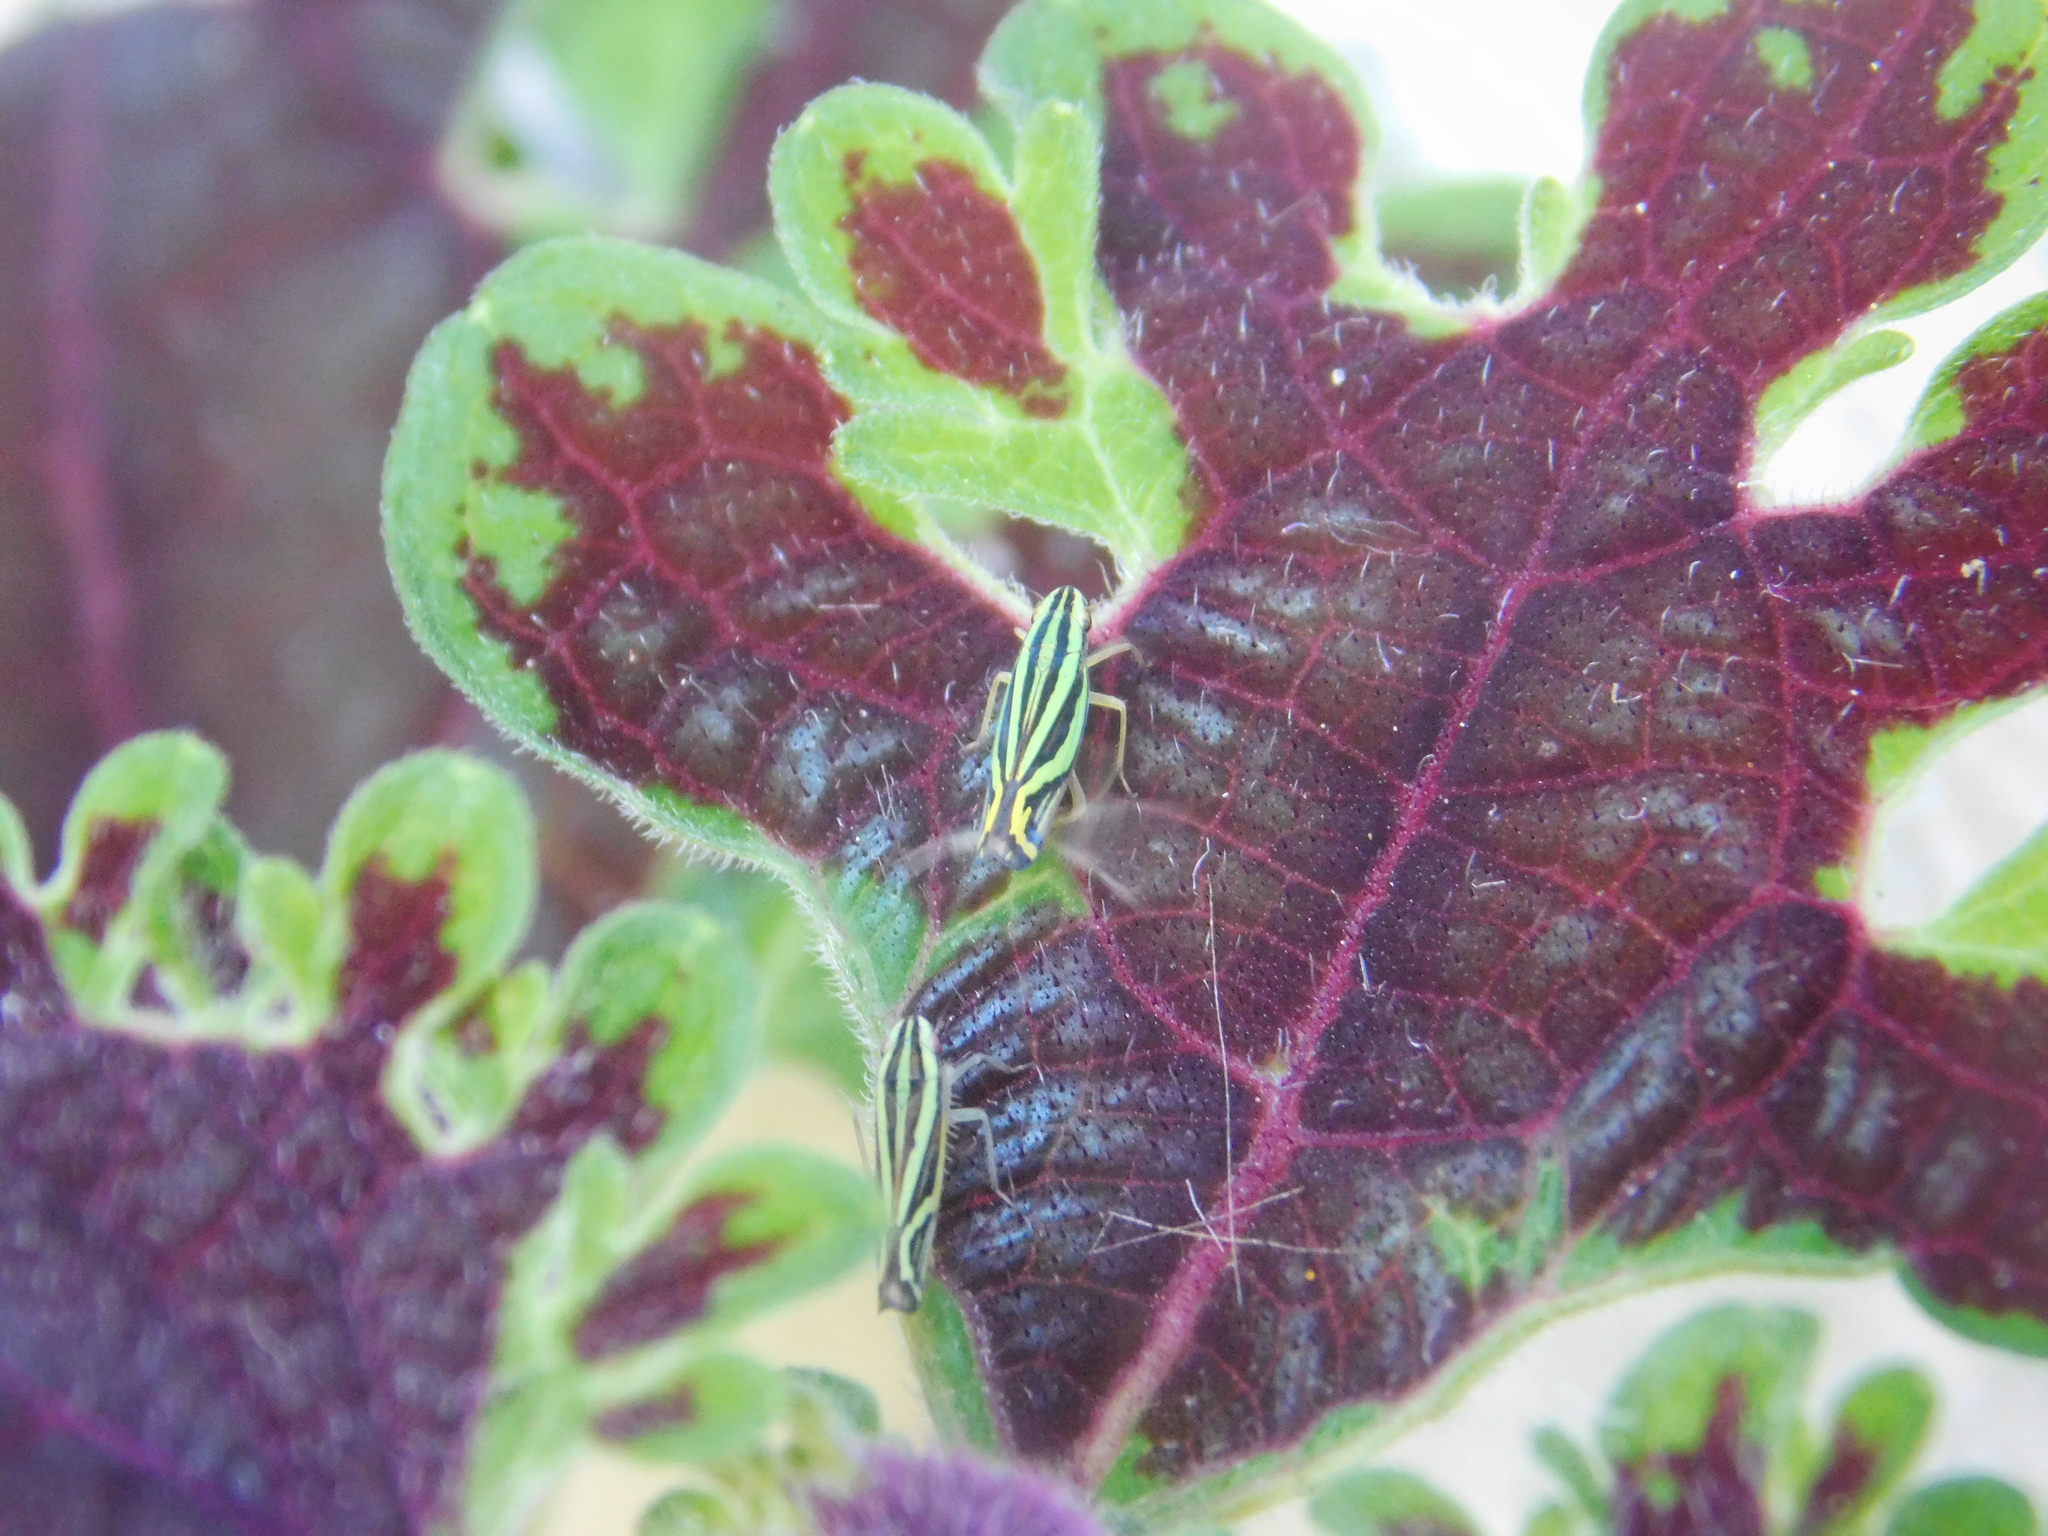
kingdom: Animalia
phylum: Arthropoda
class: Insecta
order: Hemiptera
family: Cicadellidae
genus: Sibovia
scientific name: Sibovia sagata
